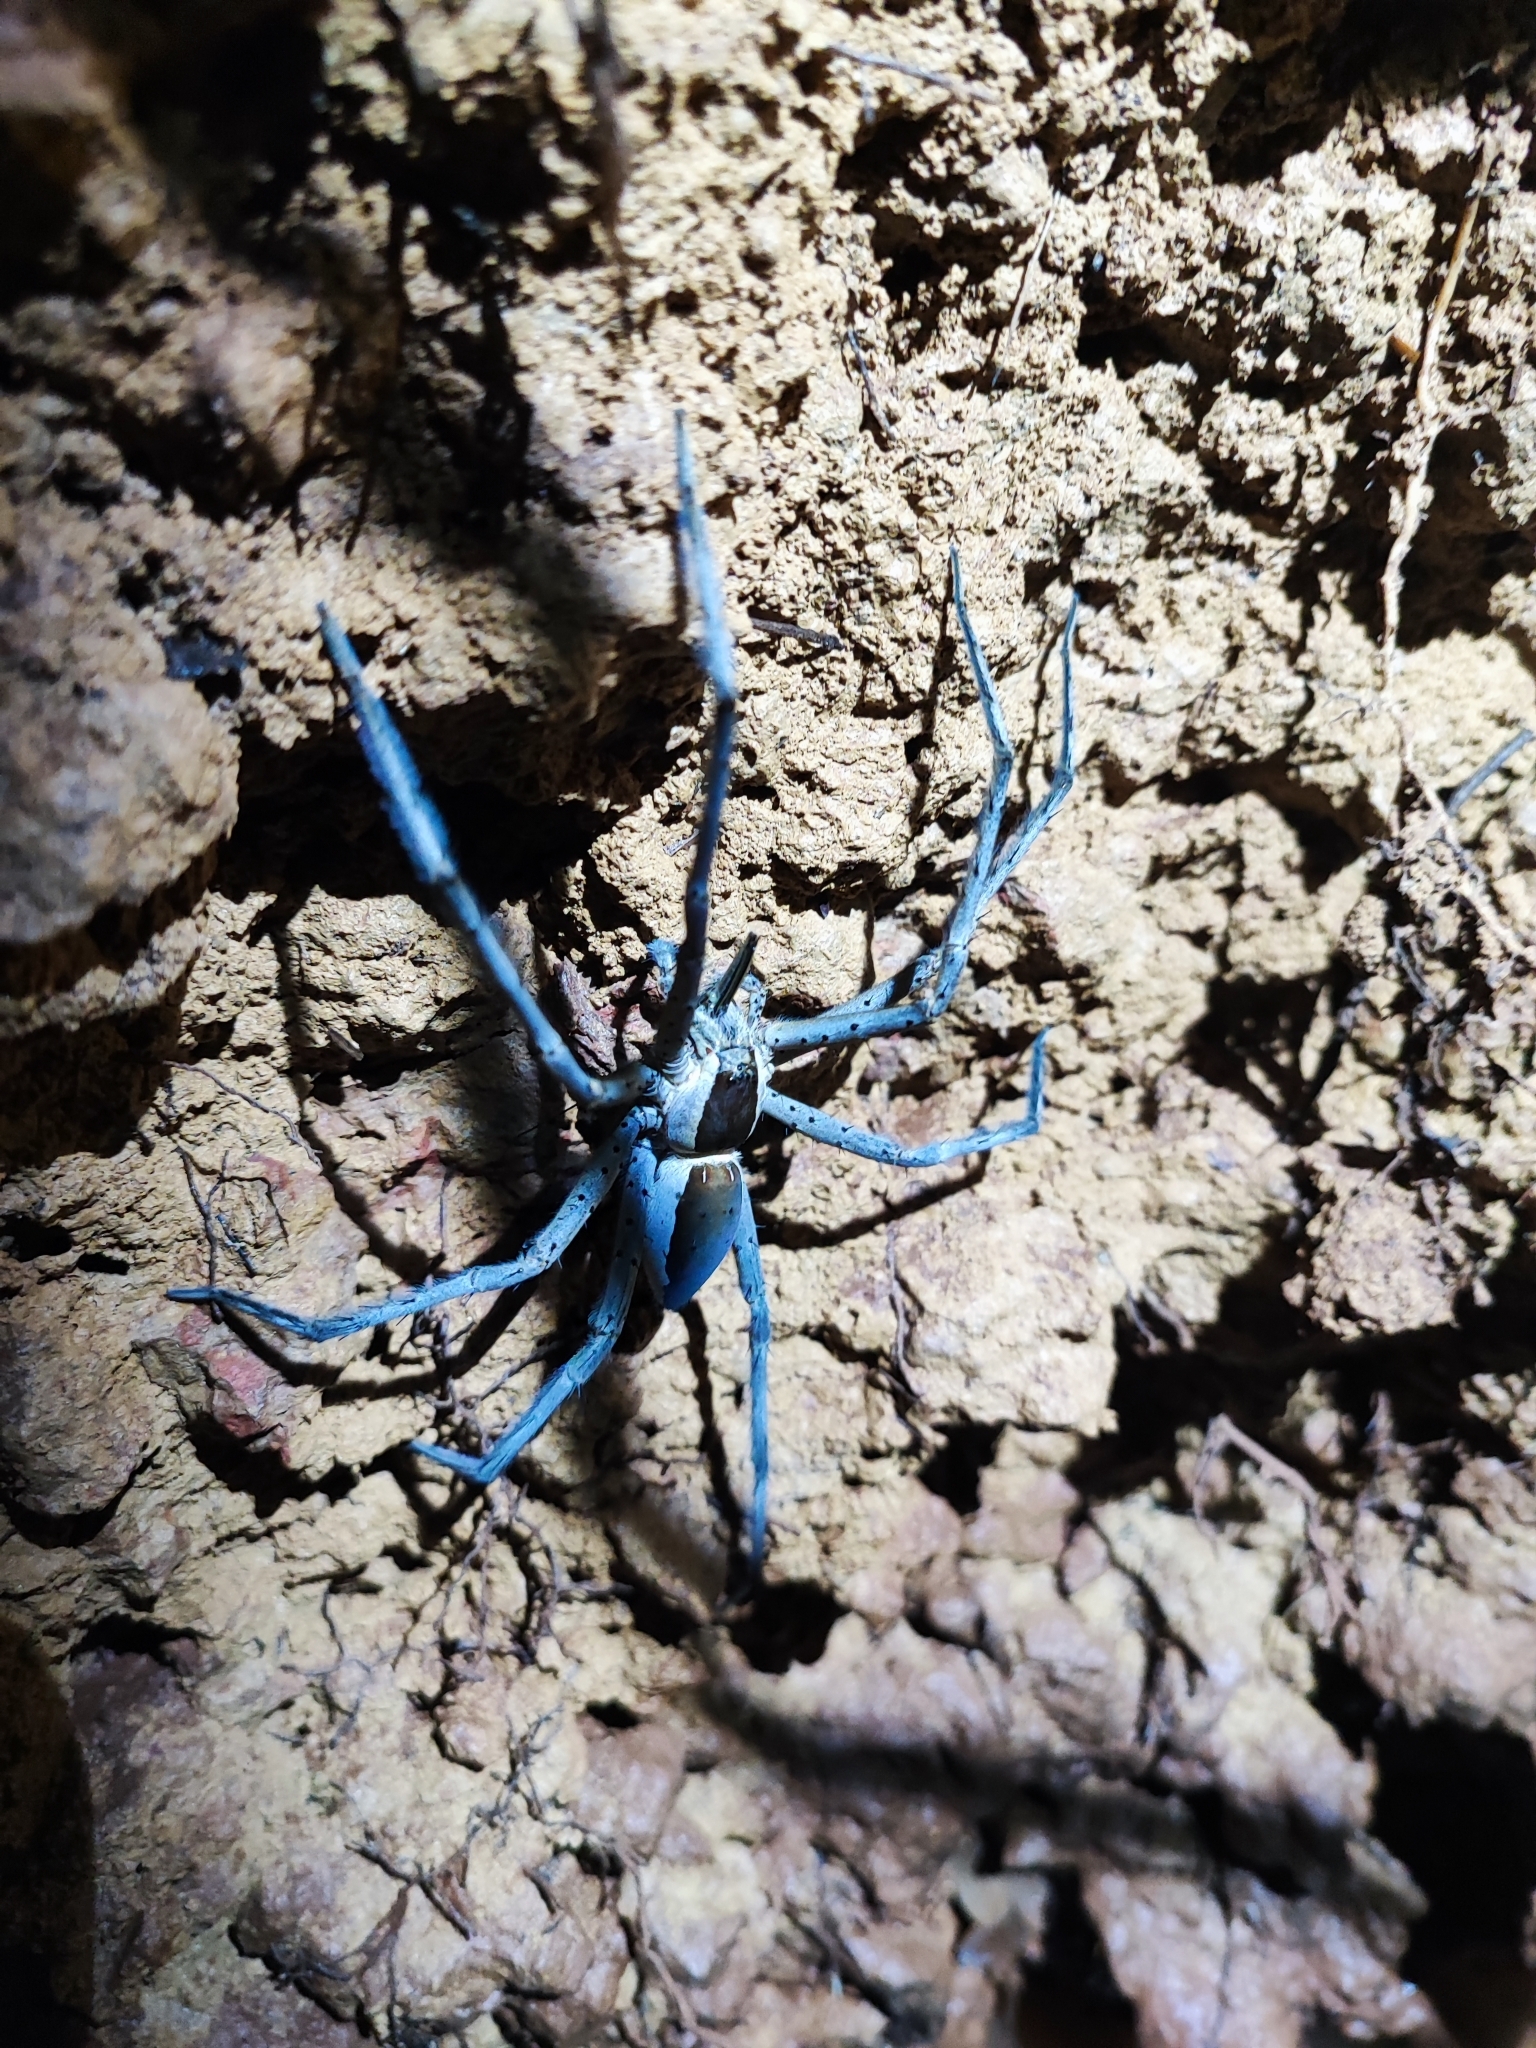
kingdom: Animalia
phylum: Arthropoda
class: Arachnida
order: Araneae
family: Pisauridae
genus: Nilus
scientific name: Nilus albocinctus
